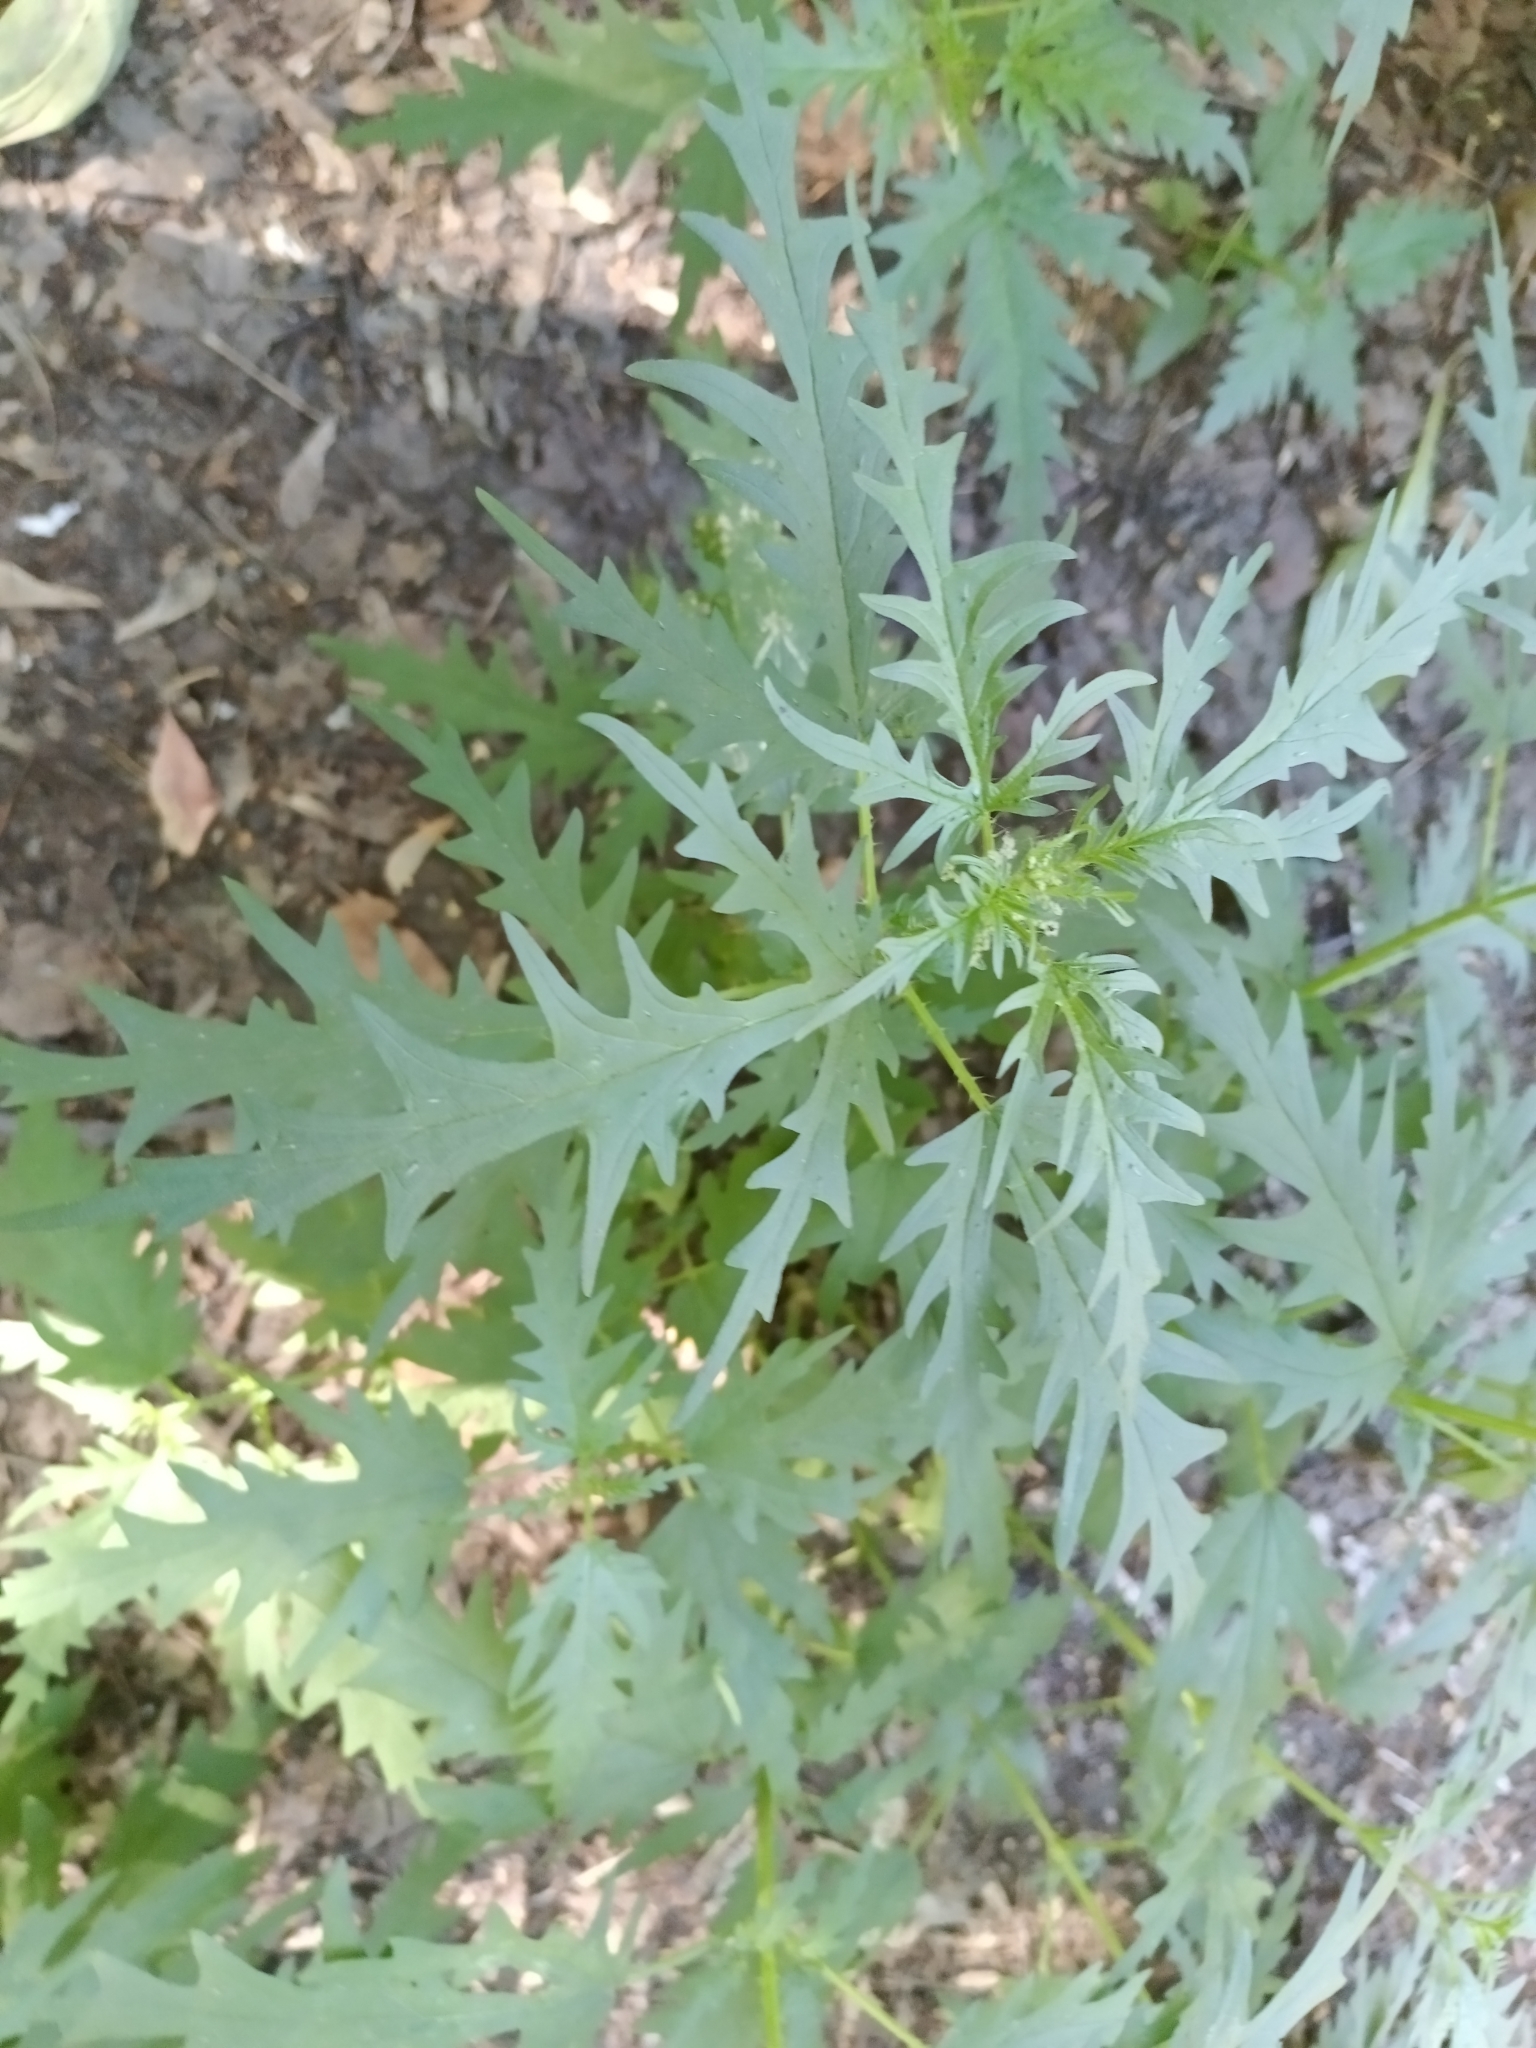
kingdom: Plantae
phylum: Tracheophyta
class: Magnoliopsida
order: Rosales
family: Urticaceae
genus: Urtica
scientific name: Urtica cannabina
